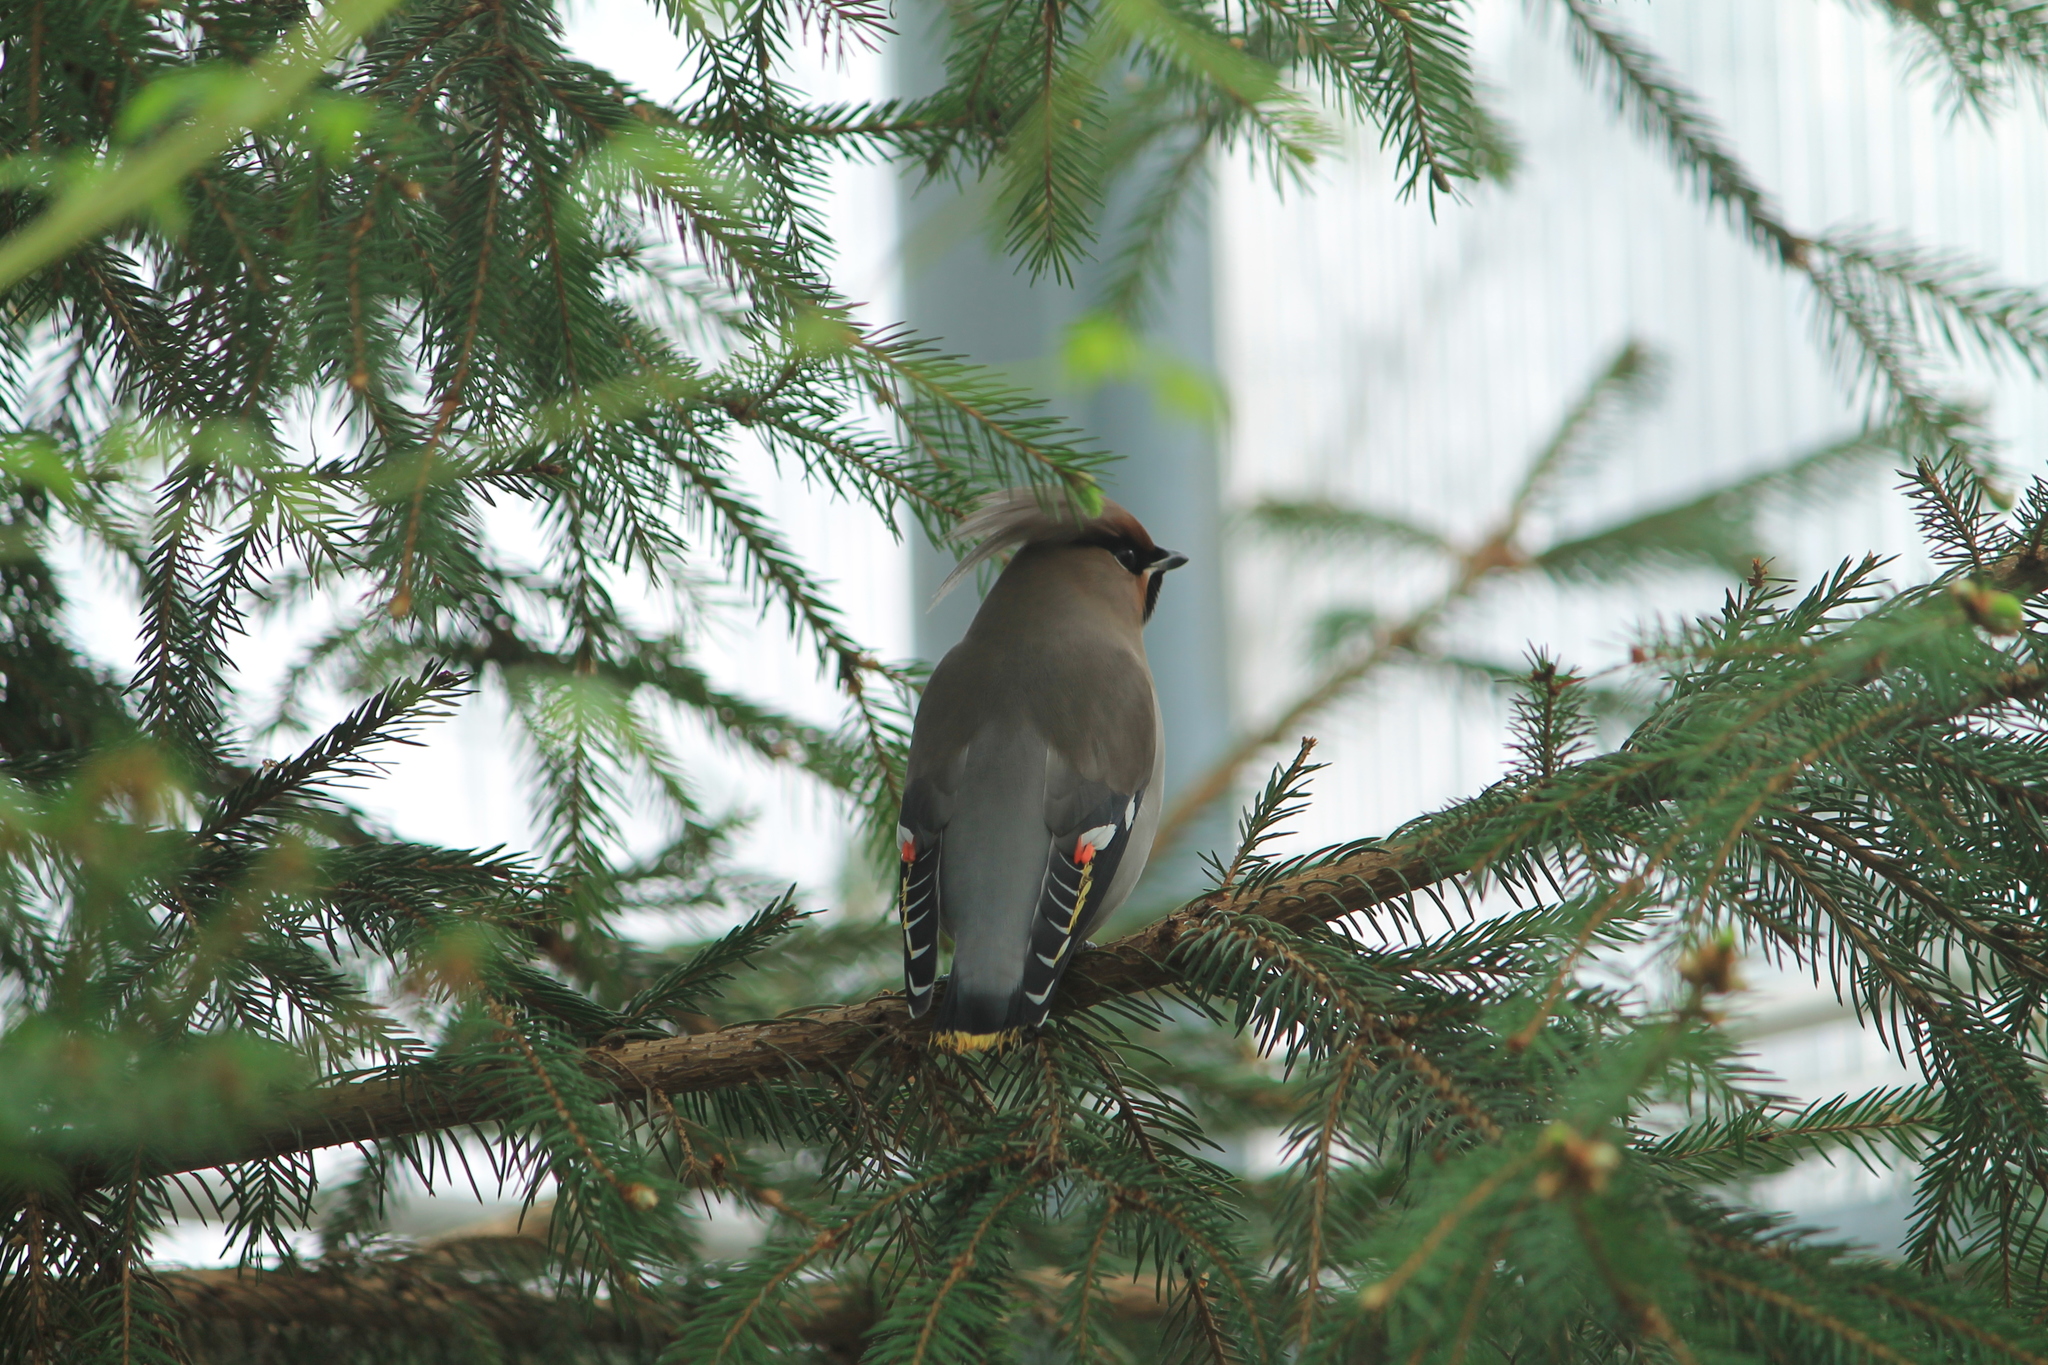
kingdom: Animalia
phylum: Chordata
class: Aves
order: Passeriformes
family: Bombycillidae
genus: Bombycilla
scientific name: Bombycilla garrulus
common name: Bohemian waxwing
